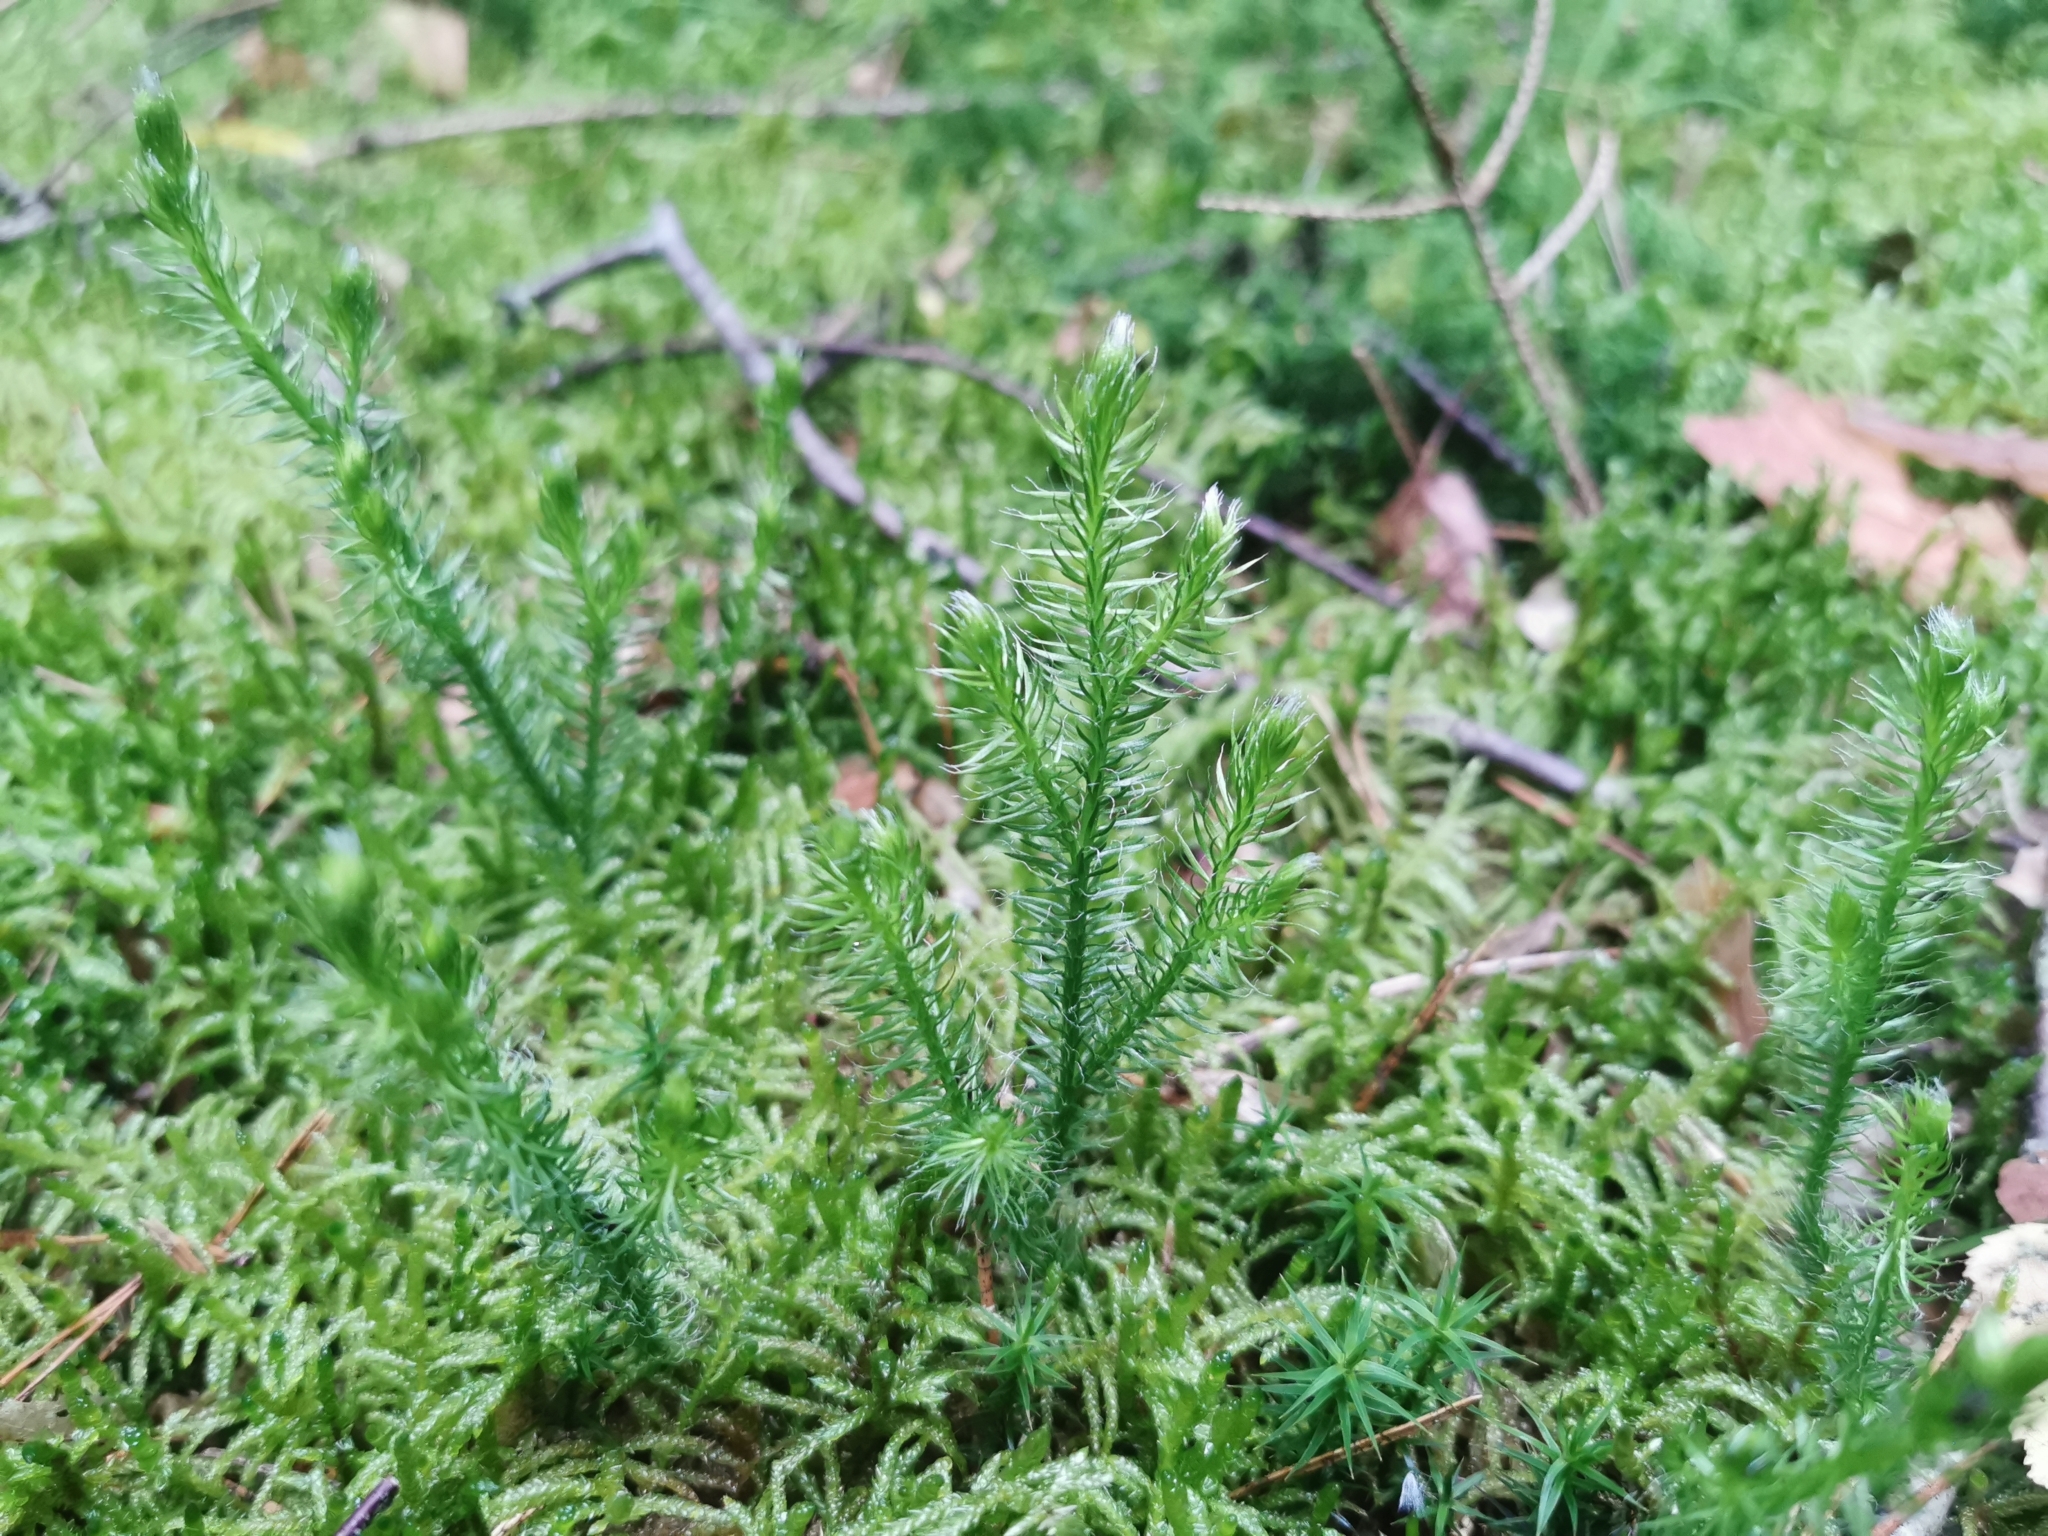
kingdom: Plantae
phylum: Tracheophyta
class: Lycopodiopsida
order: Lycopodiales
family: Lycopodiaceae
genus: Lycopodium
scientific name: Lycopodium clavatum
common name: Stag's-horn clubmoss
